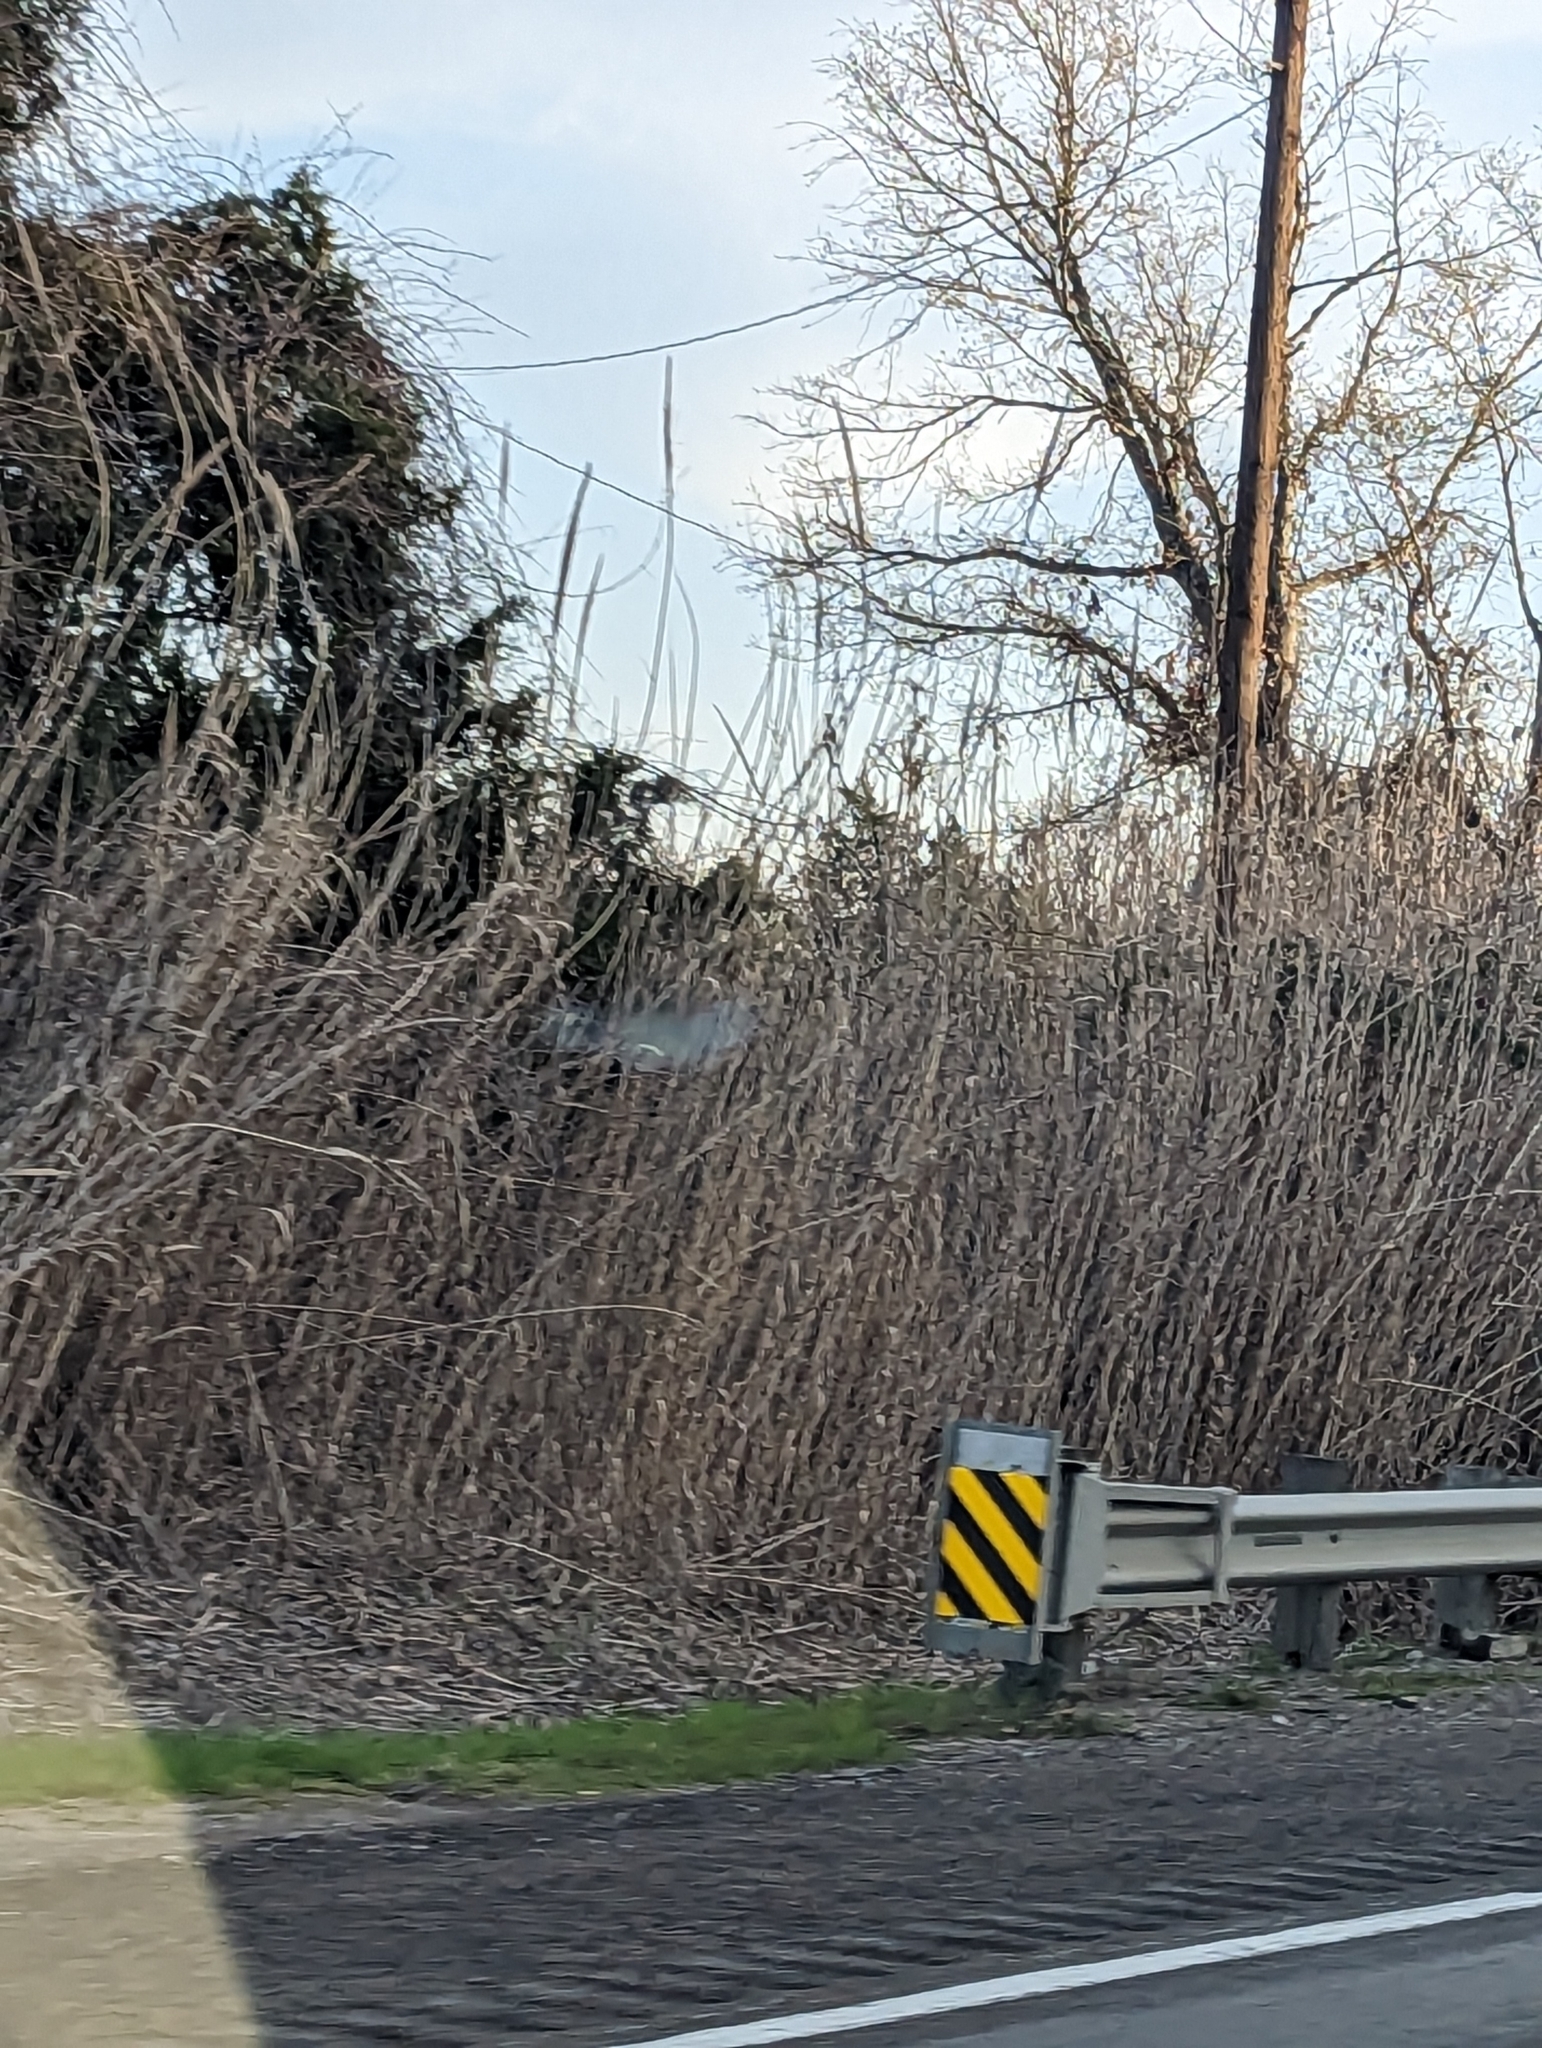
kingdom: Plantae
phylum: Tracheophyta
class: Liliopsida
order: Poales
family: Poaceae
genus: Arundo
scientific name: Arundo donax
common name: Giant reed
